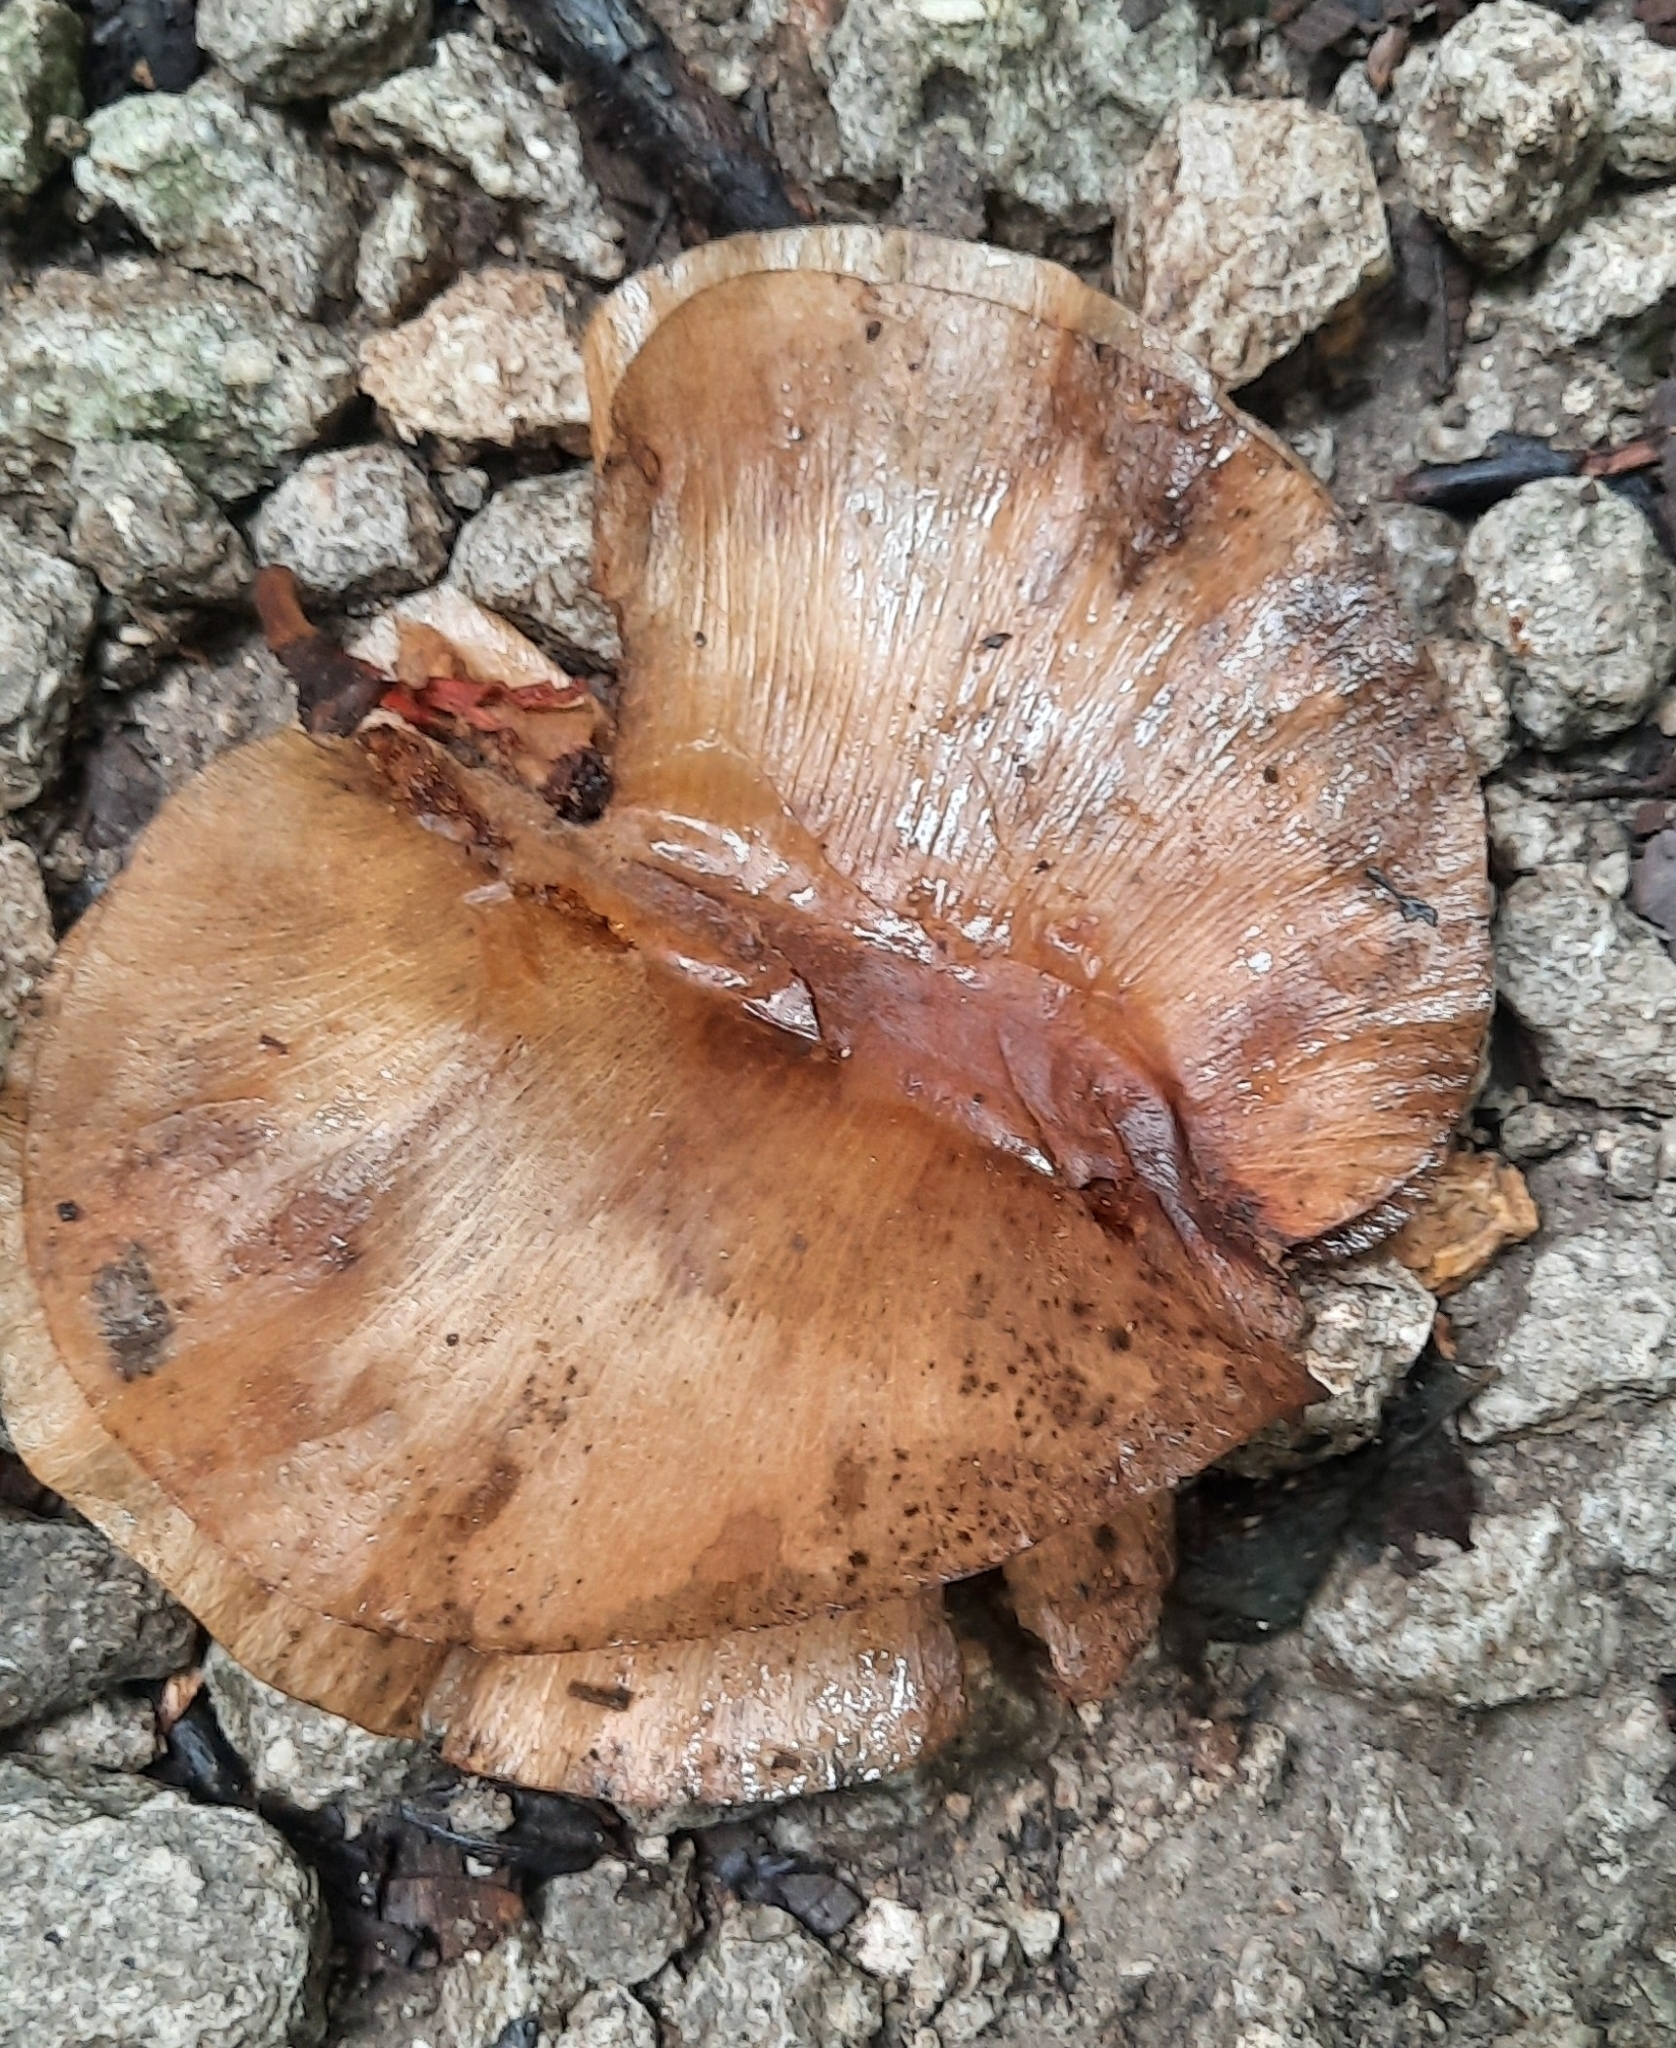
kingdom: Plantae
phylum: Tracheophyta
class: Magnoliopsida
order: Malvales
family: Malvaceae
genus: Cavanillesia
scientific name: Cavanillesia platanifolia
